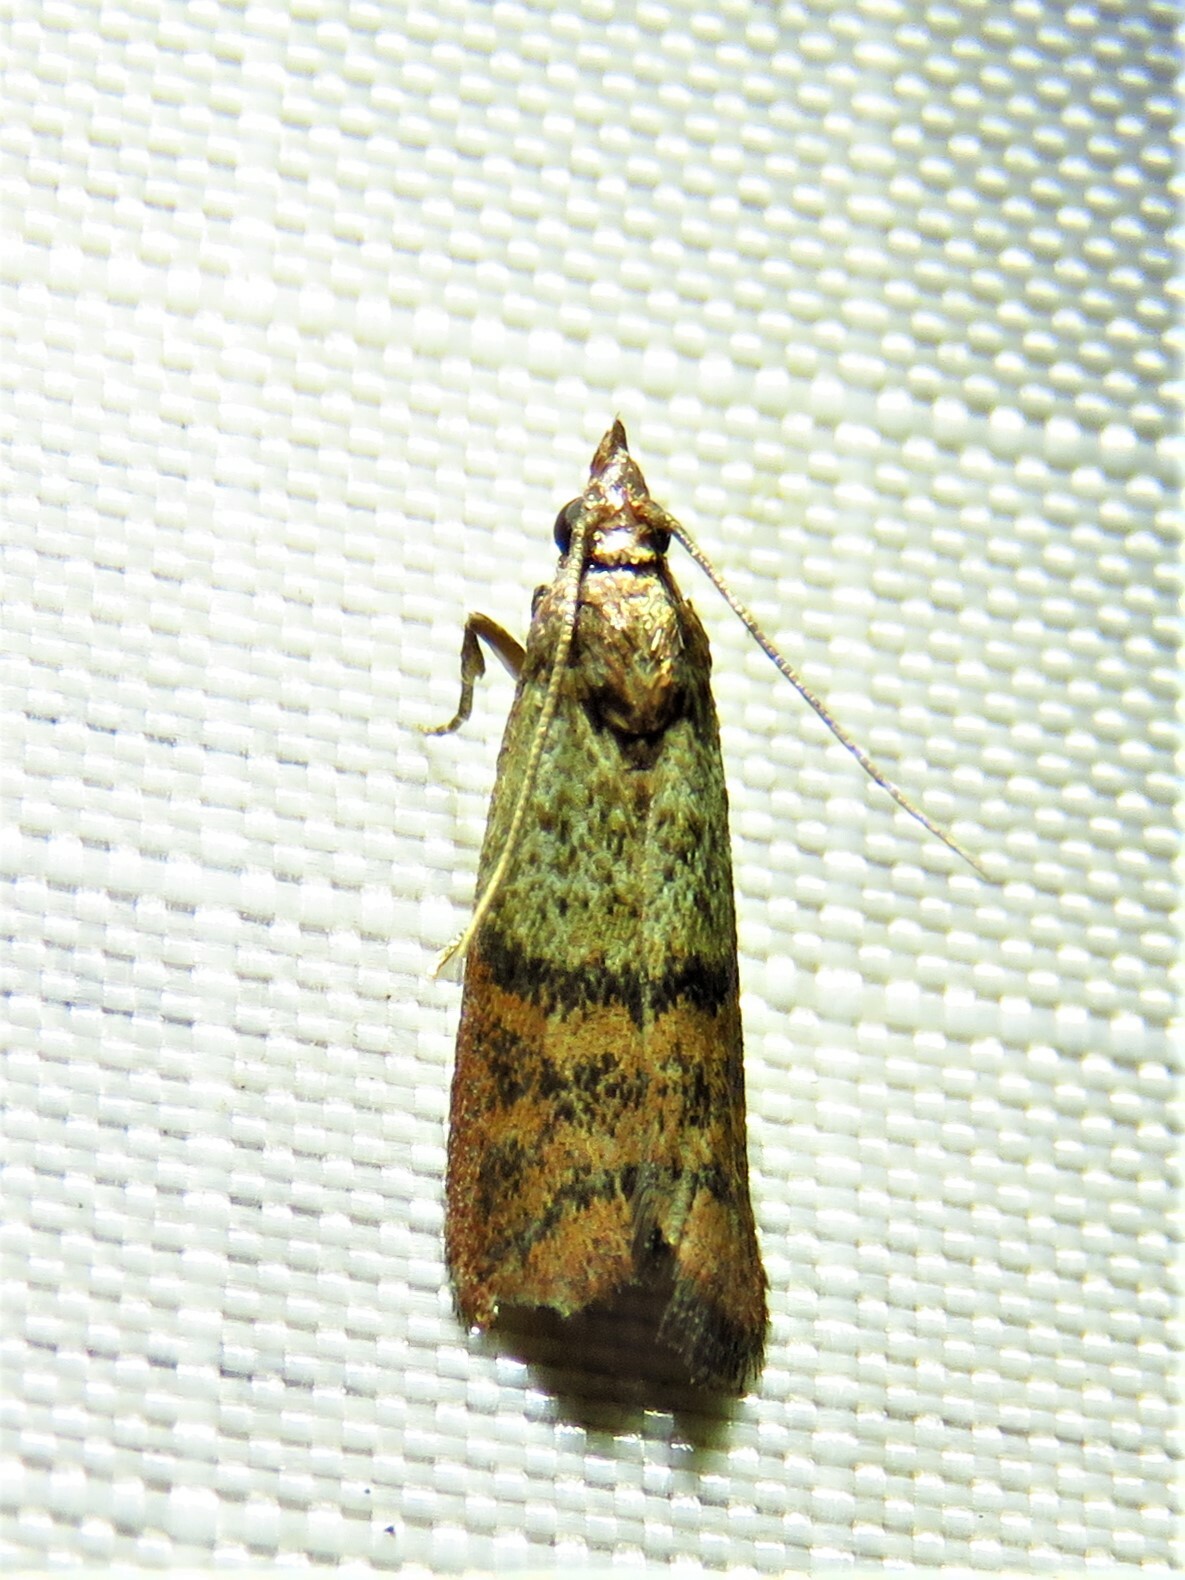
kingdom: Animalia
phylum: Arthropoda
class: Insecta
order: Lepidoptera
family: Pyralidae
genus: Plodia
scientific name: Plodia interpunctella
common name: Indian meal moth
